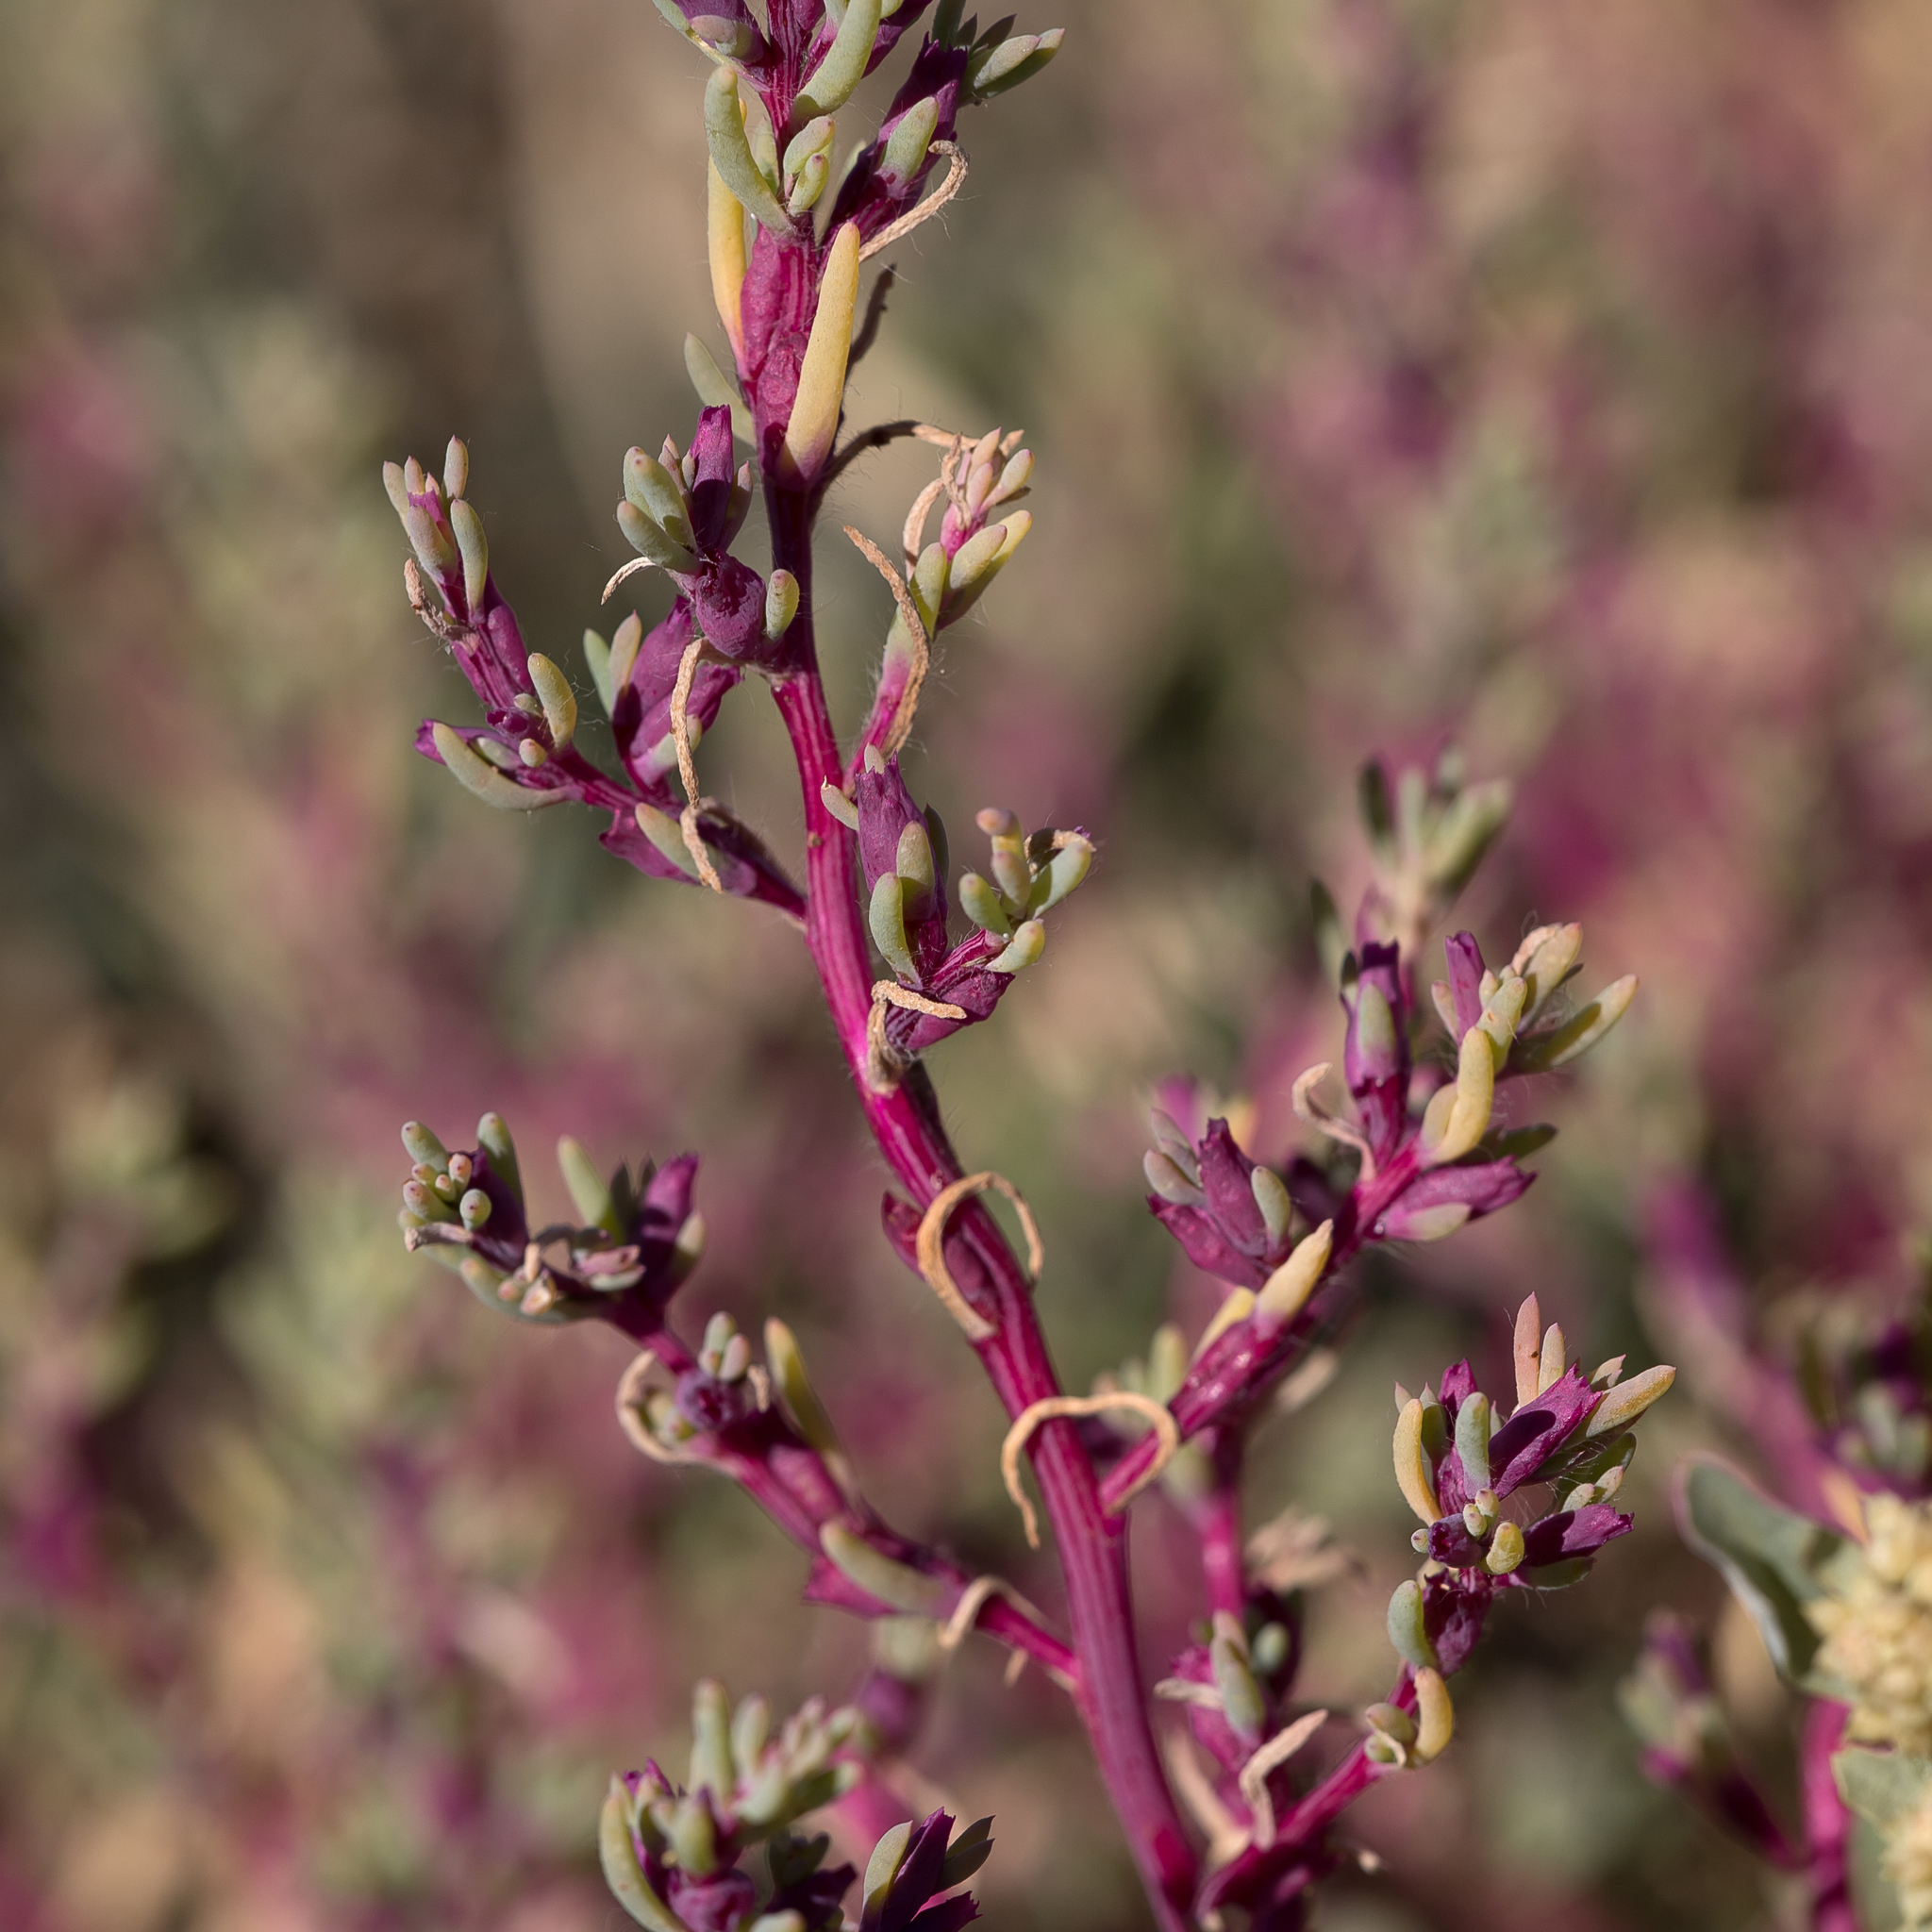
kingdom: Plantae
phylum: Tracheophyta
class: Magnoliopsida
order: Caryophyllales
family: Amaranthaceae
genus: Neobassia
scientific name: Neobassia proceriflora
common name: Desert-glasswort
